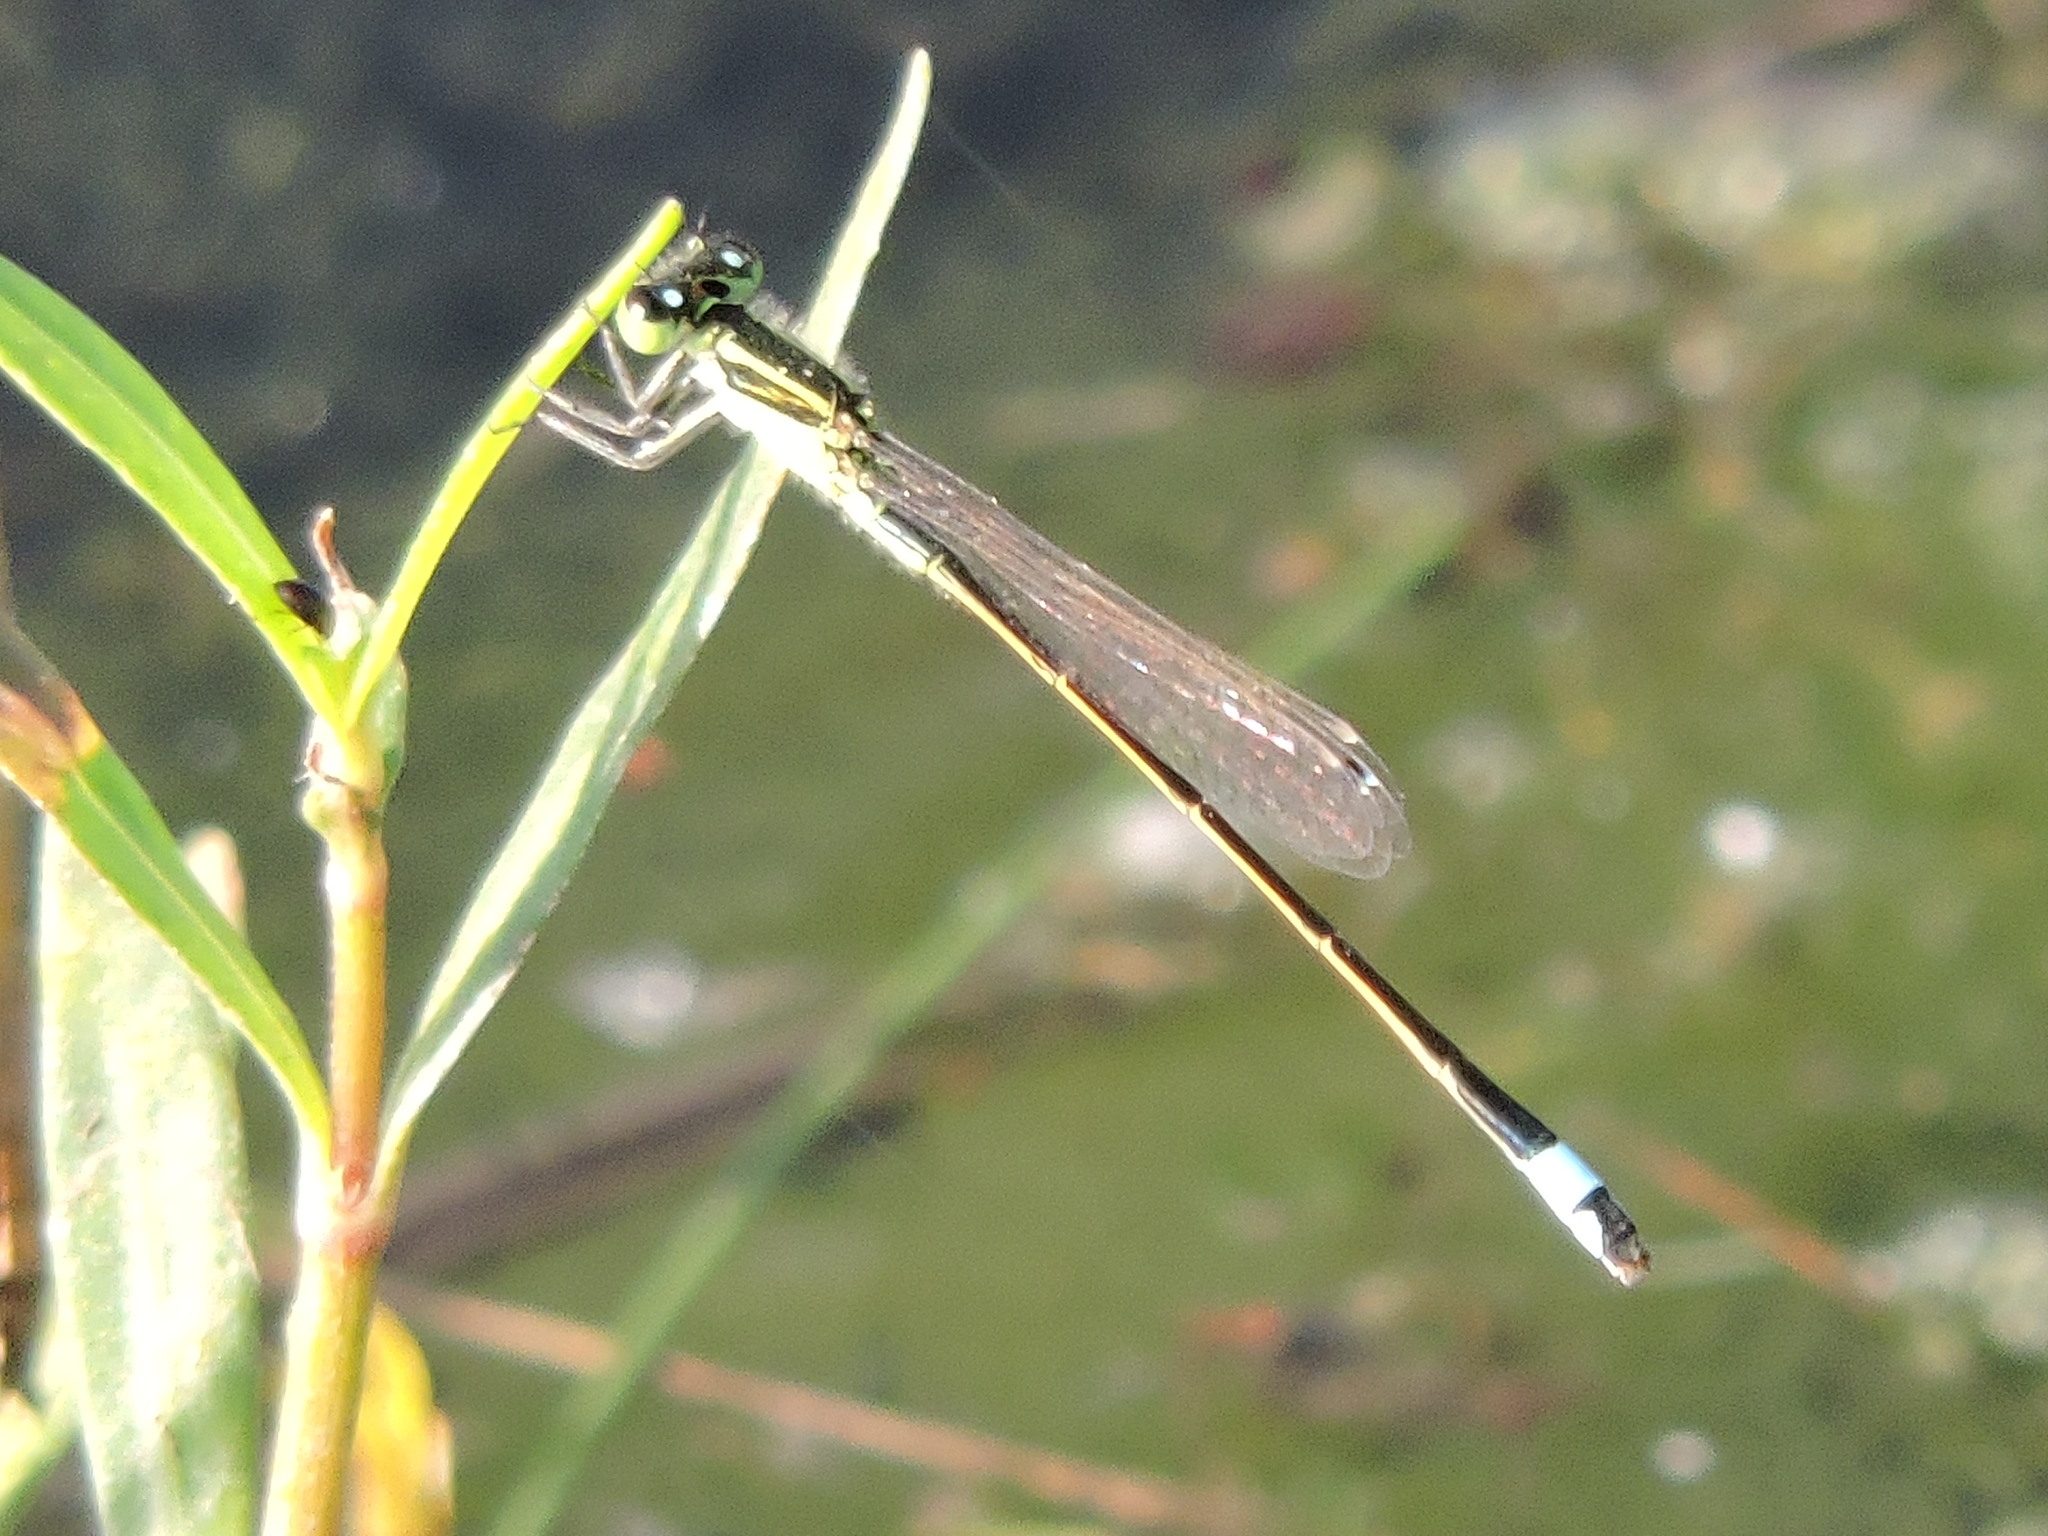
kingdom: Animalia
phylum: Arthropoda
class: Insecta
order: Odonata
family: Coenagrionidae
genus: Ischnura
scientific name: Ischnura ramburii
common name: Rambur's forktail
